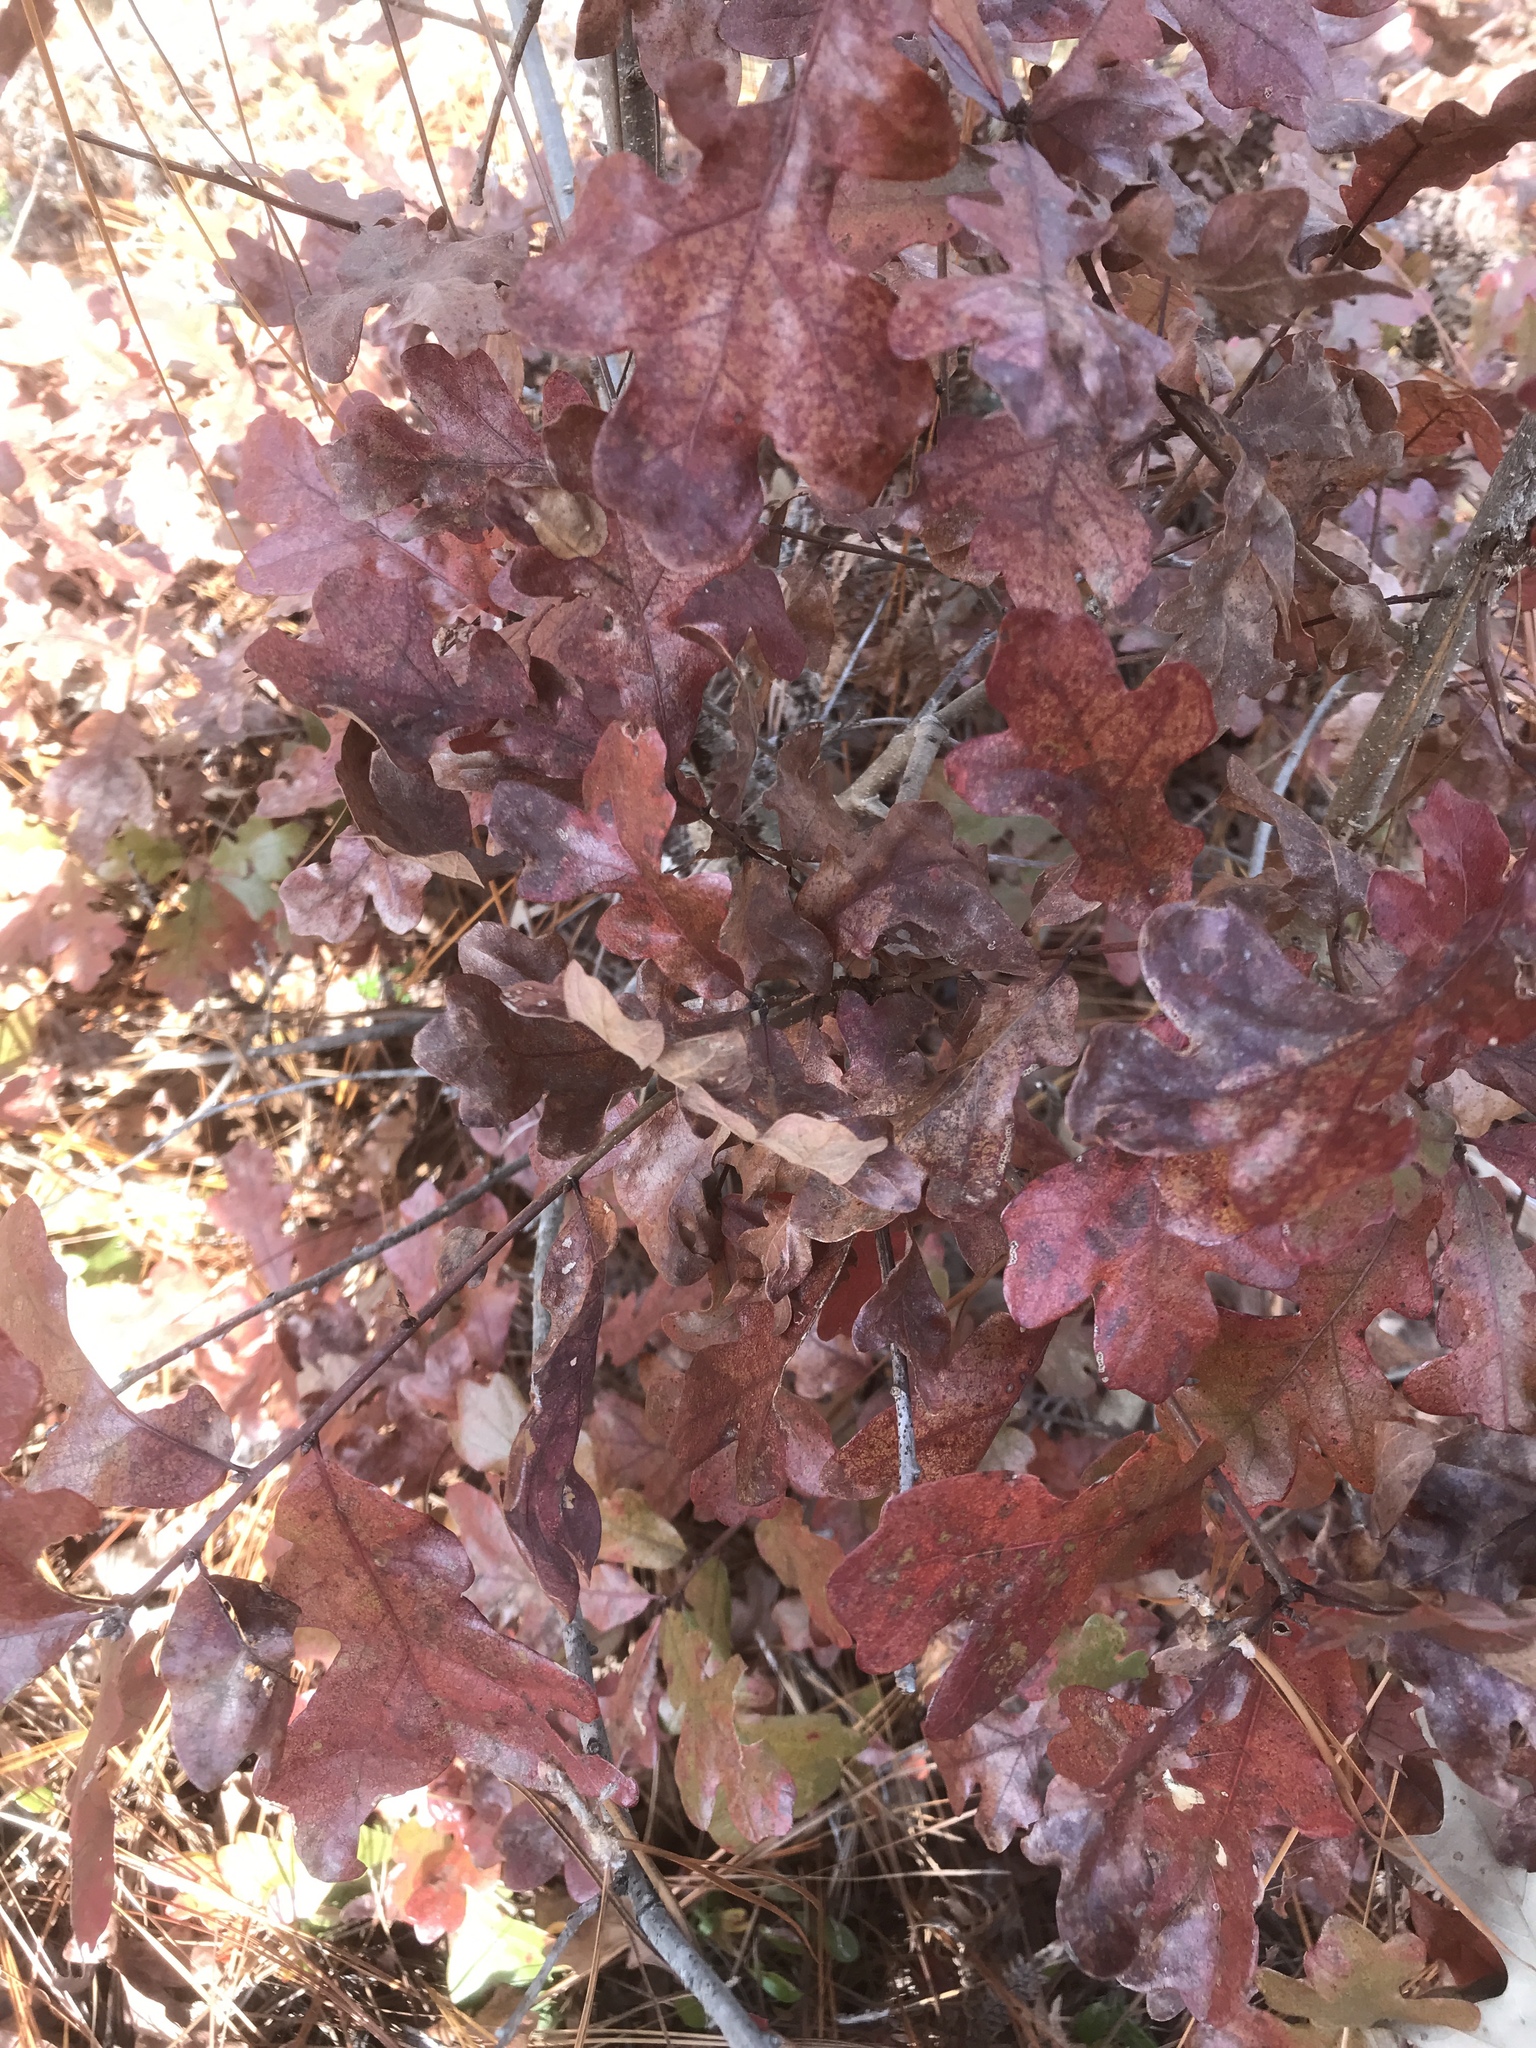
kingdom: Plantae
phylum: Tracheophyta
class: Magnoliopsida
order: Fagales
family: Fagaceae
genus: Quercus
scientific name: Quercus margaretiae
